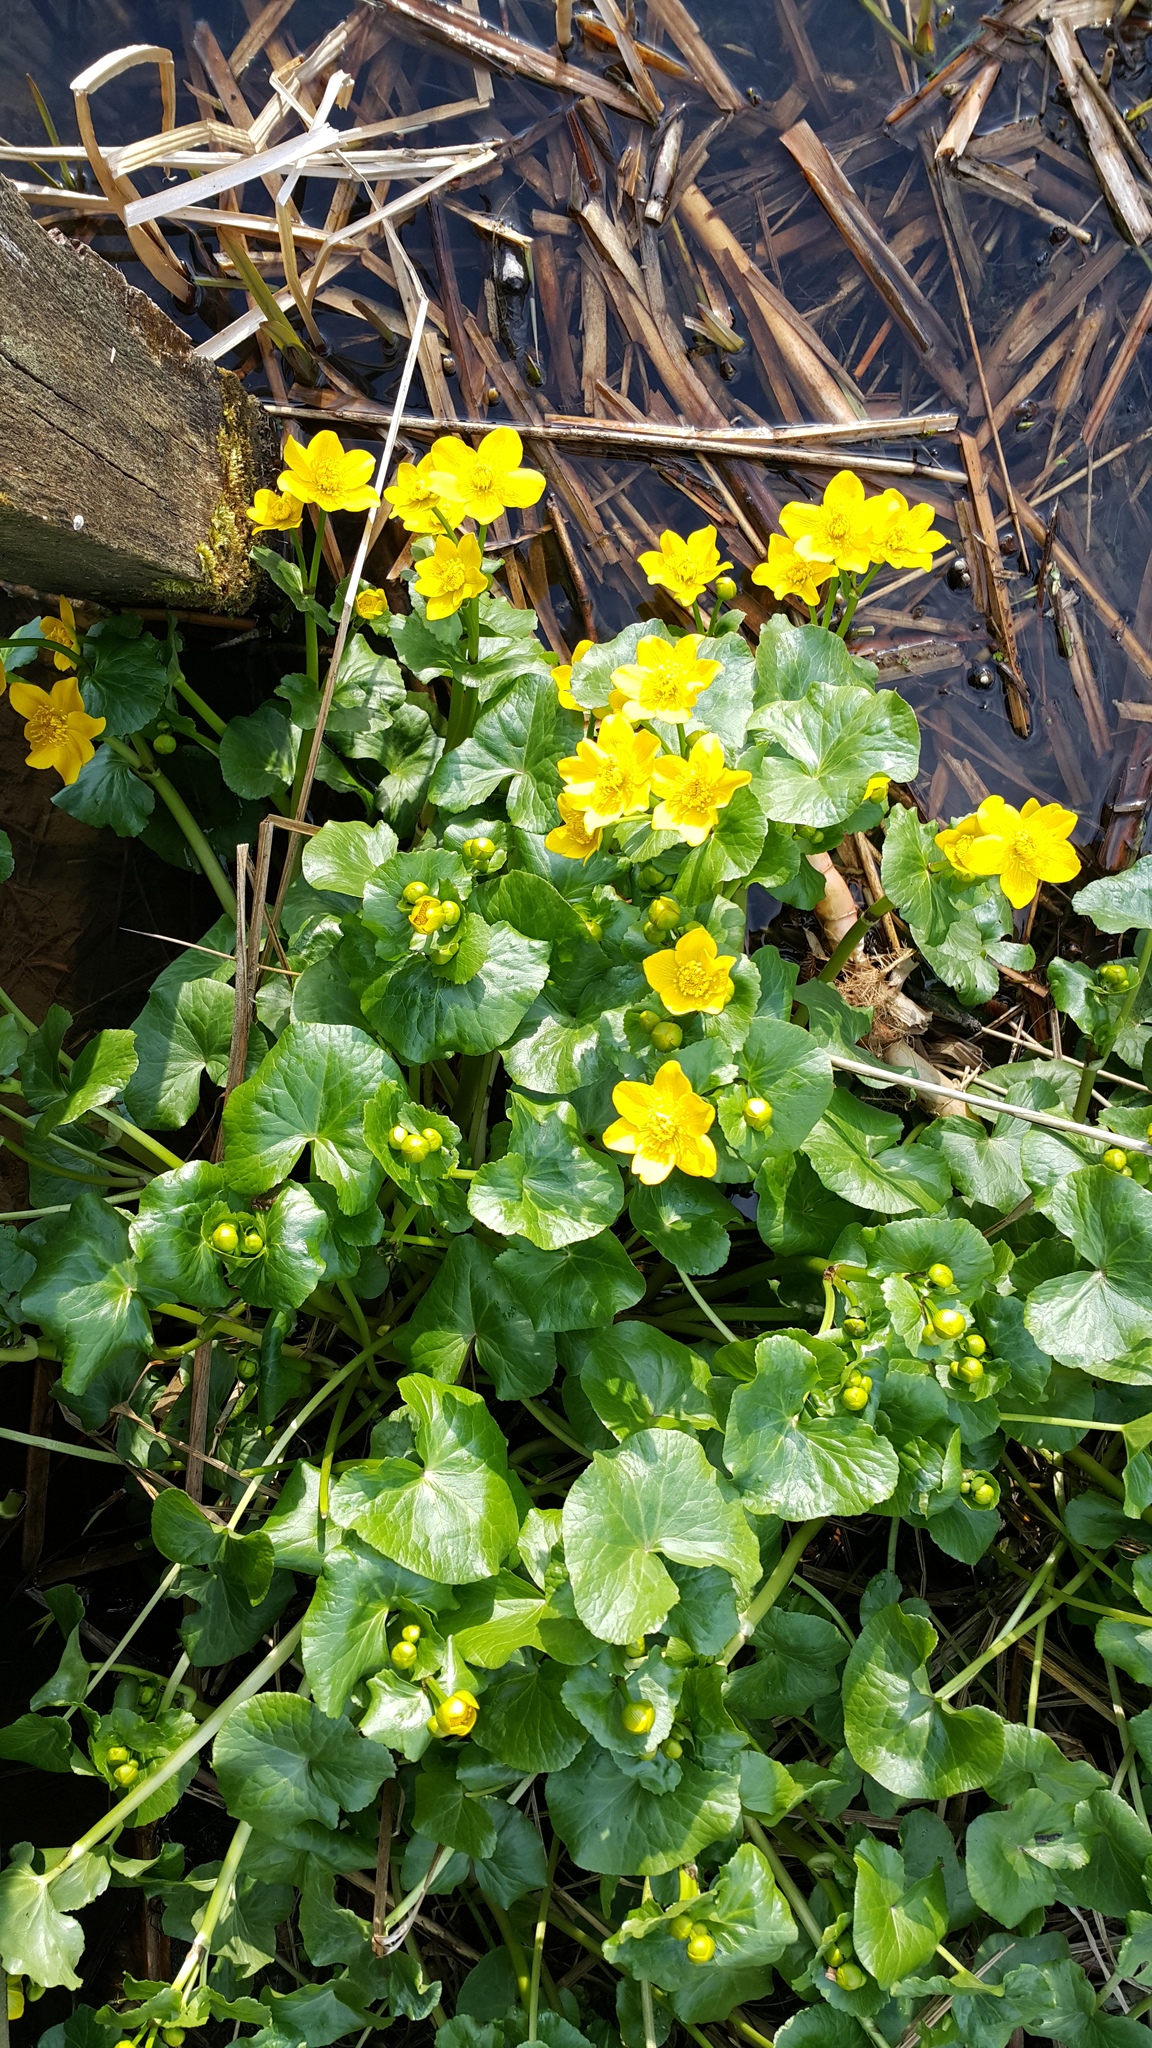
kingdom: Plantae
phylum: Tracheophyta
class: Magnoliopsida
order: Ranunculales
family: Ranunculaceae
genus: Caltha
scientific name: Caltha palustris
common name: Marsh marigold
